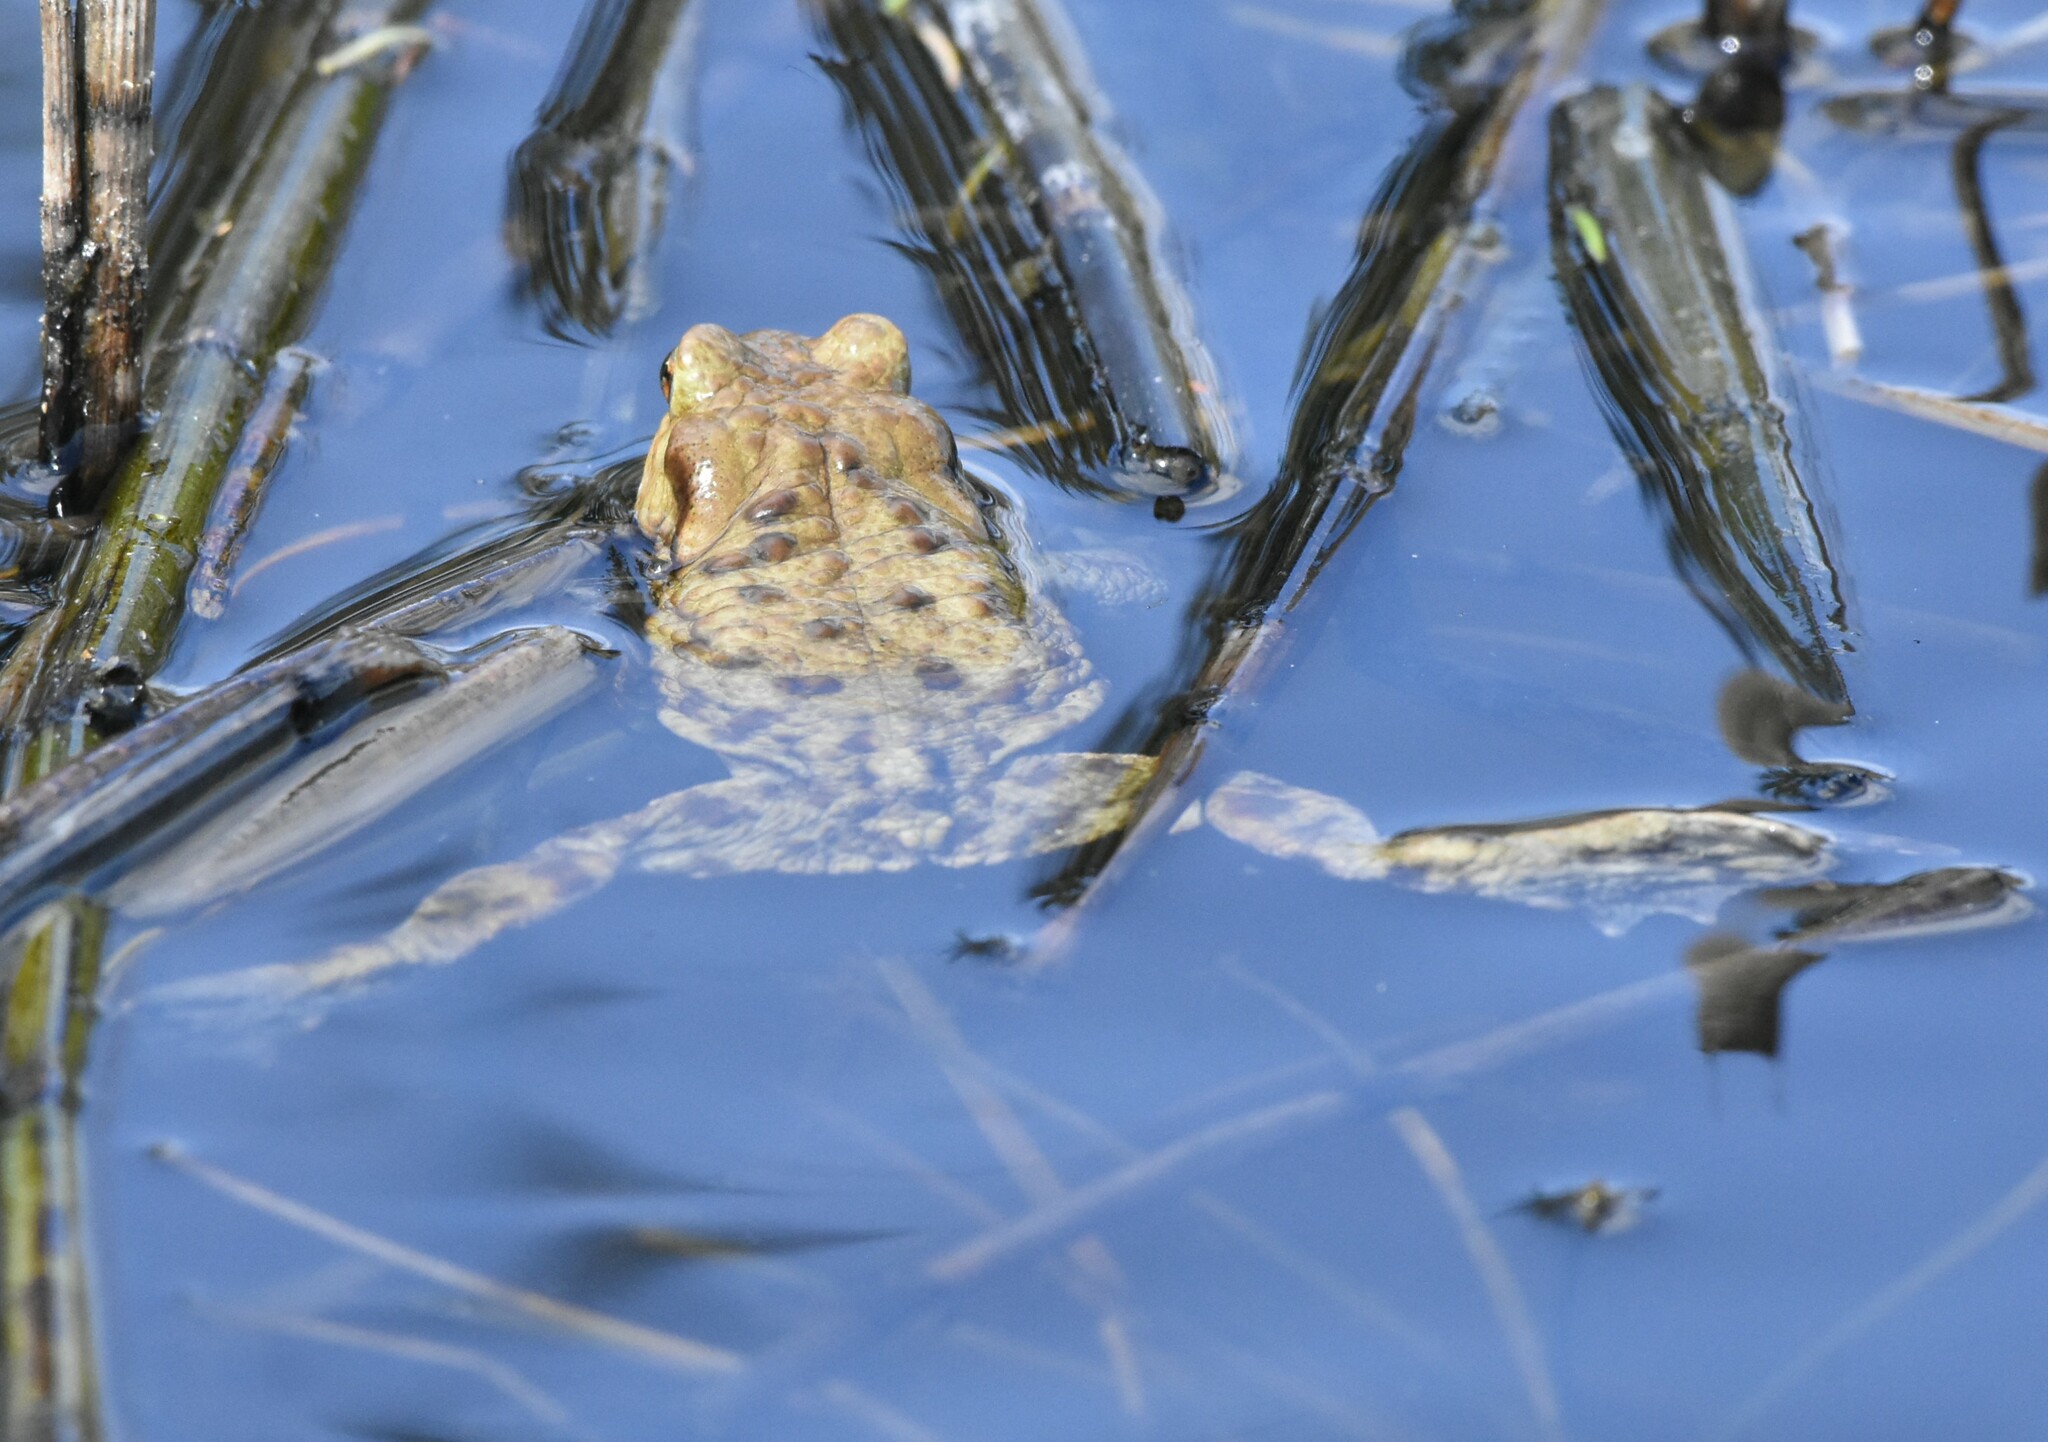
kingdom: Animalia
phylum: Chordata
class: Amphibia
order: Anura
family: Bufonidae
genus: Bufo
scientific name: Bufo bufo
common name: Common toad
